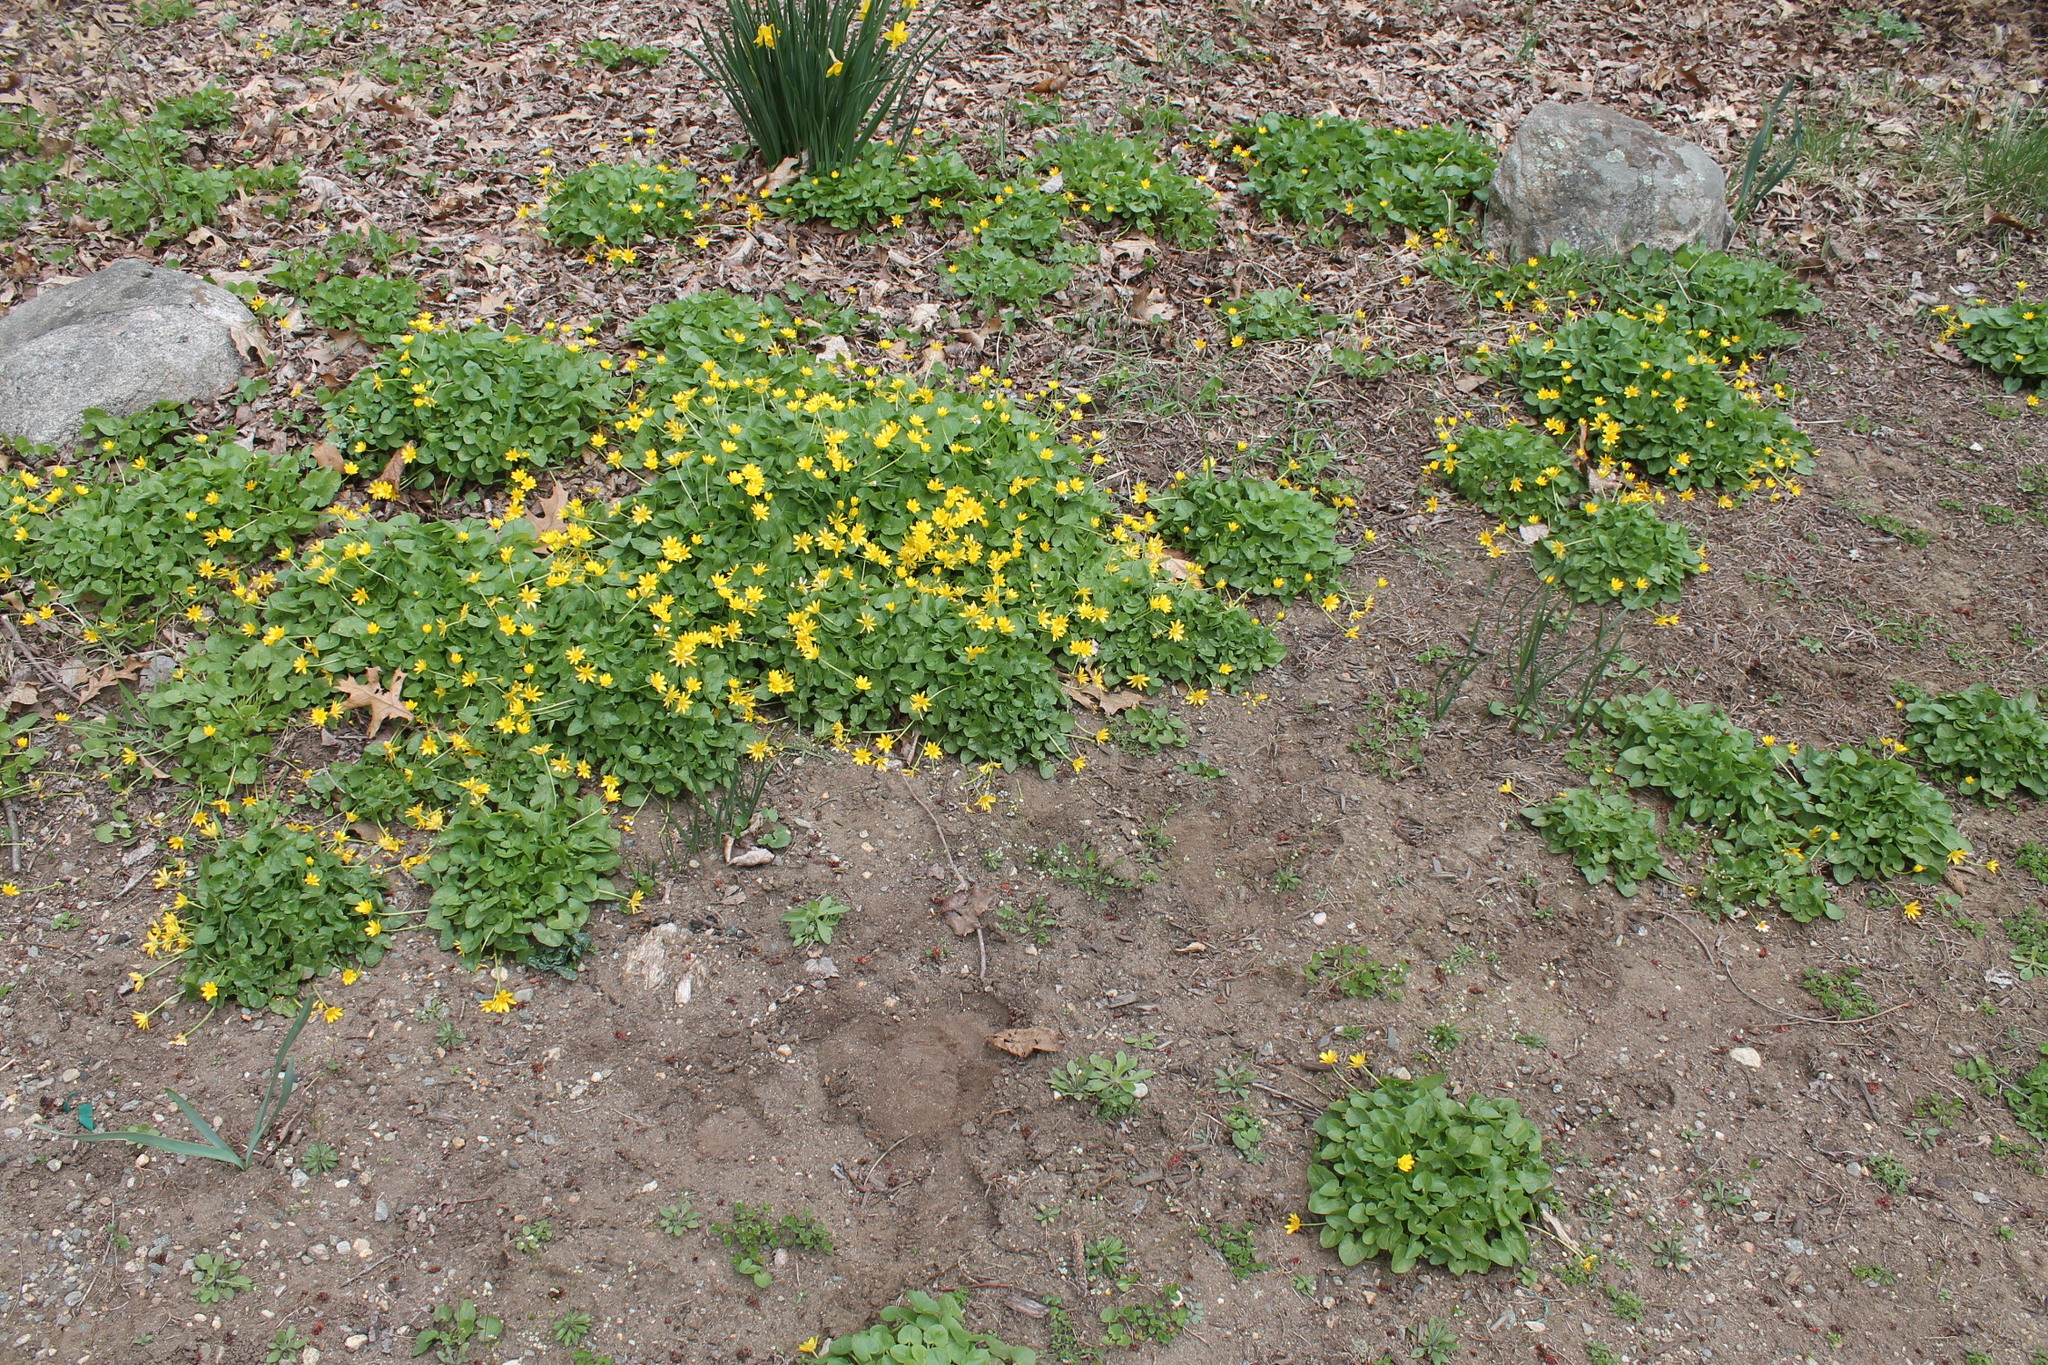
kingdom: Plantae
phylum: Tracheophyta
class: Magnoliopsida
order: Ranunculales
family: Ranunculaceae
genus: Ficaria
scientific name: Ficaria verna
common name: Lesser celandine
